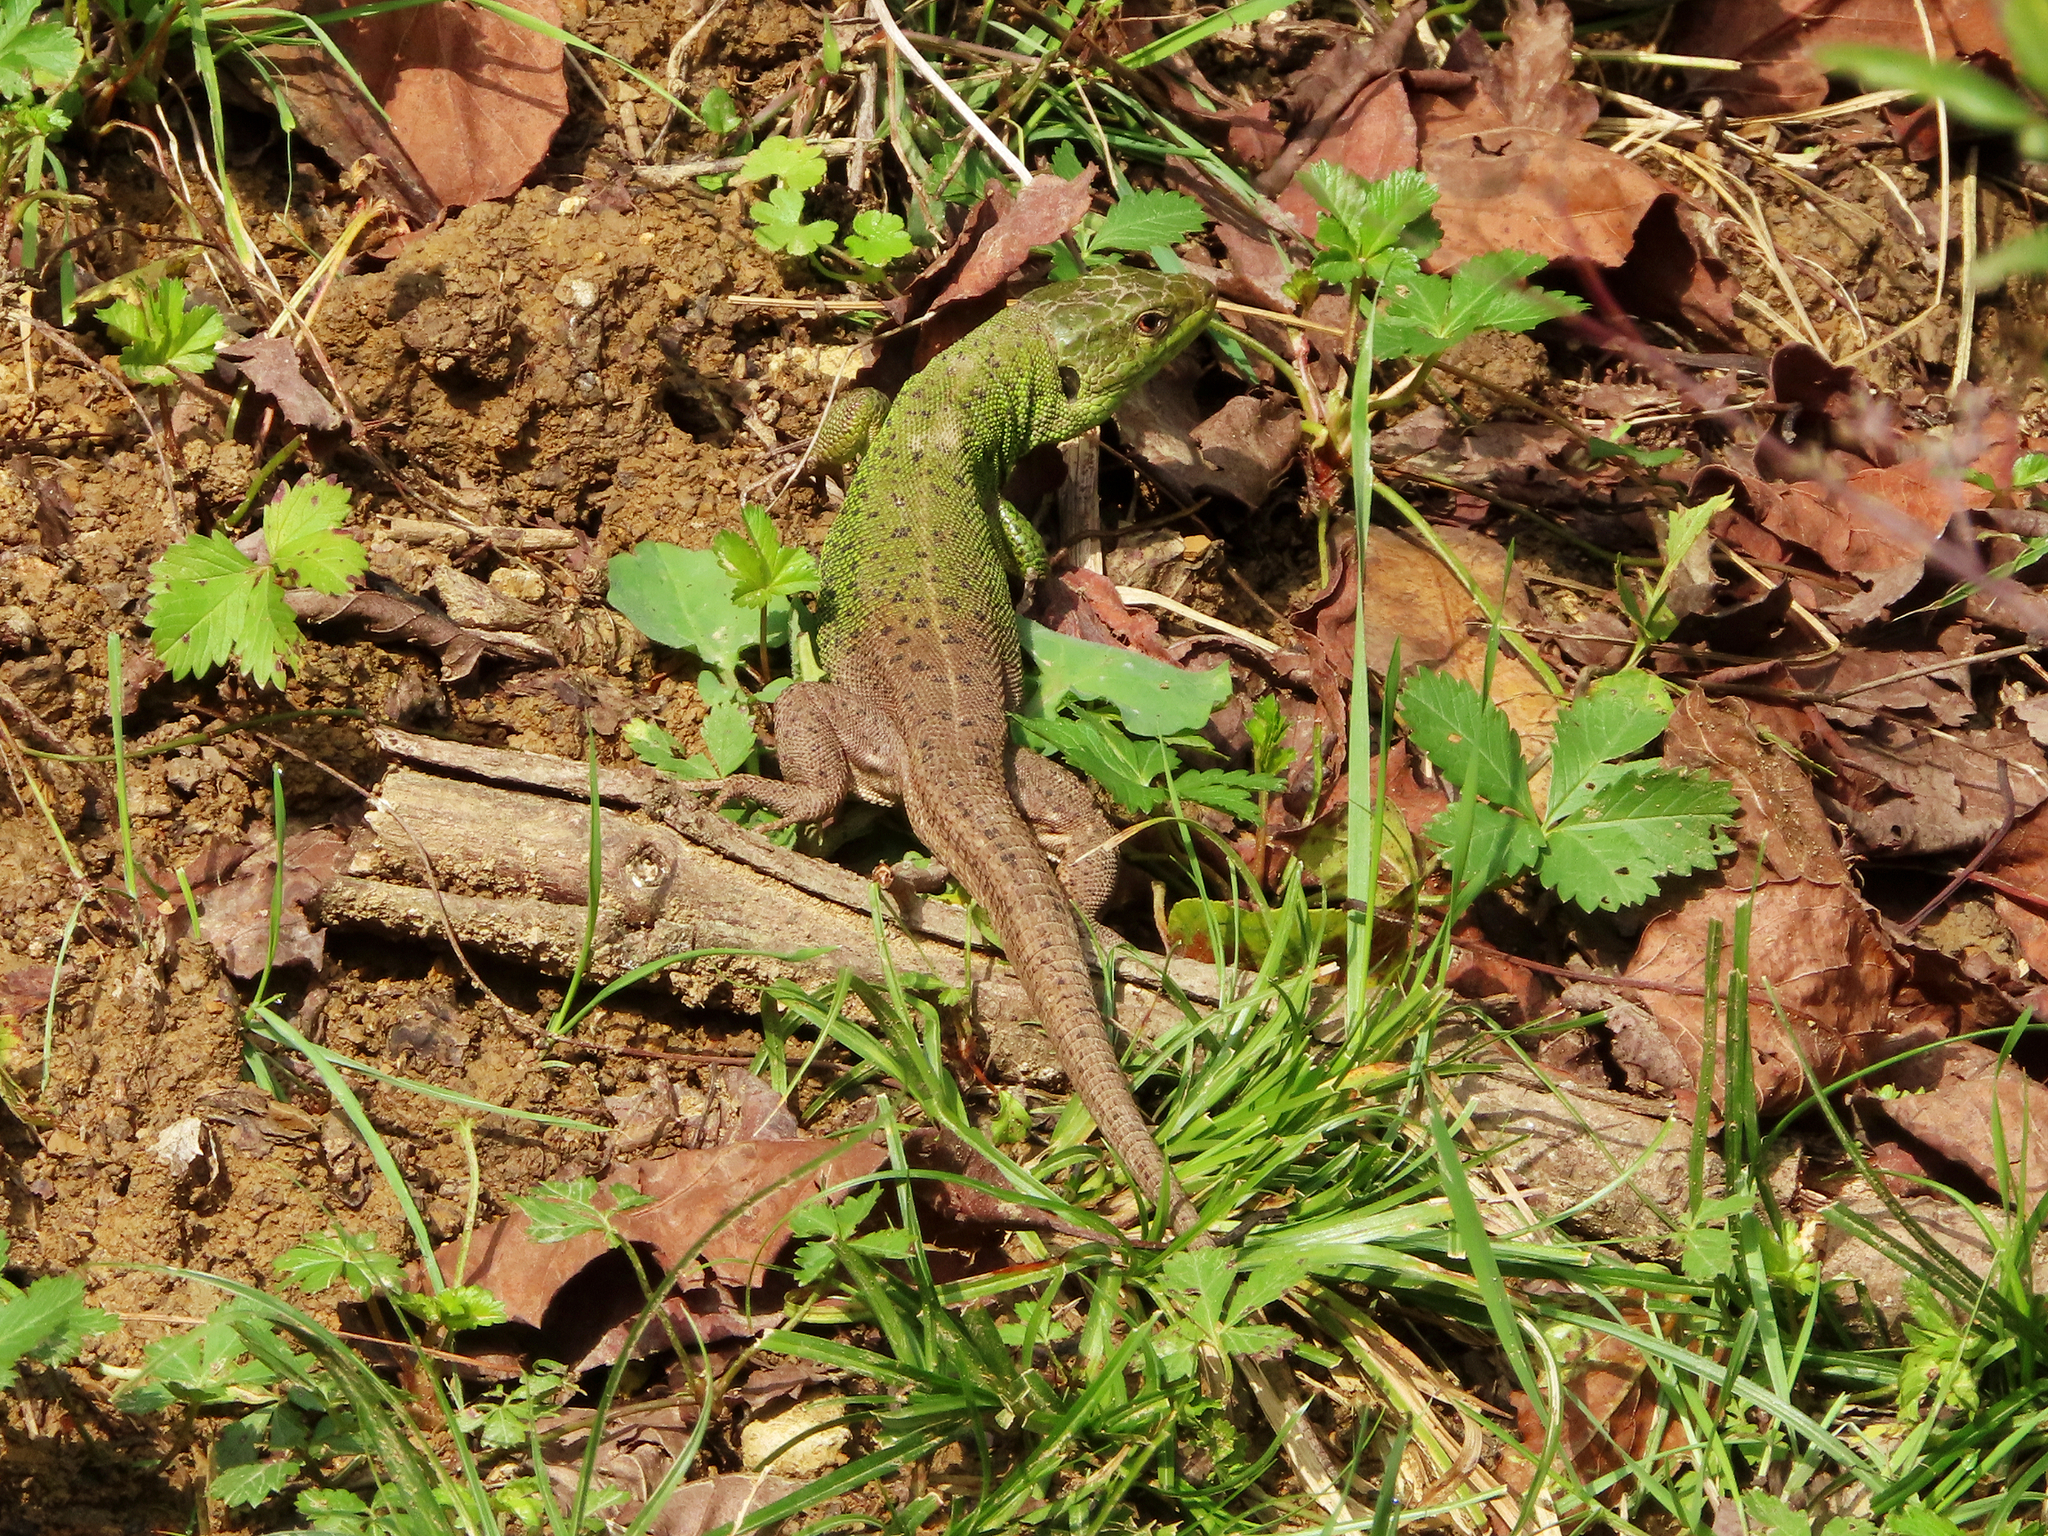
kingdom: Animalia
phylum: Chordata
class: Squamata
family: Lacertidae
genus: Lacerta
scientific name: Lacerta strigata
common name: Caspian green lizard
